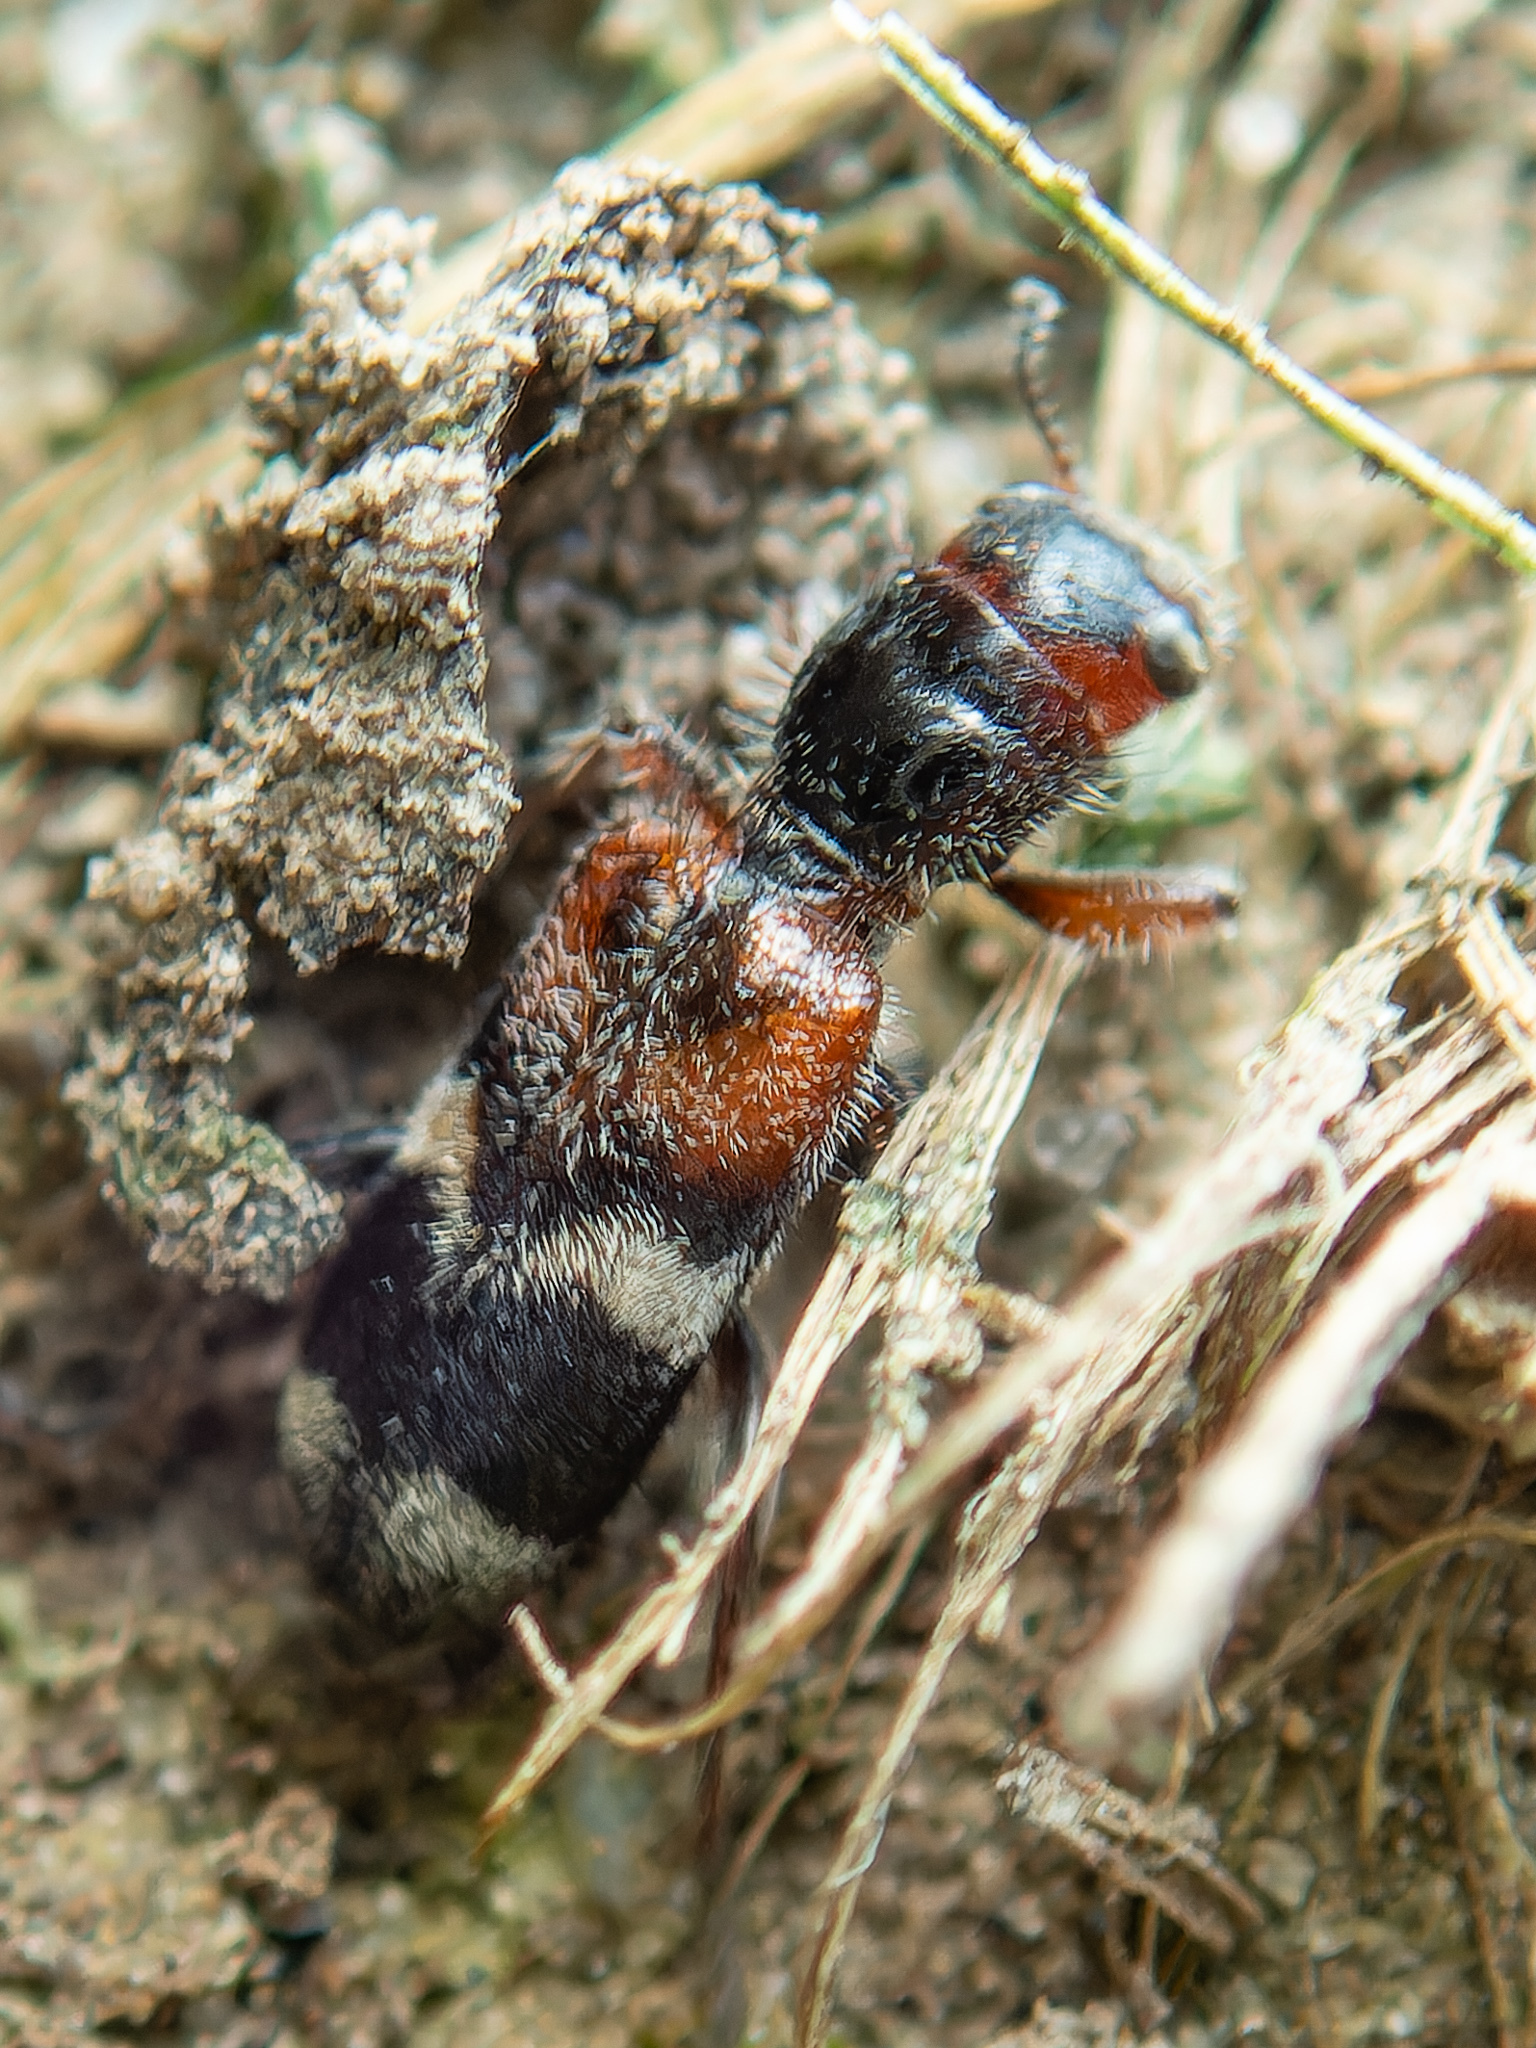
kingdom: Animalia
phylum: Arthropoda
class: Insecta
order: Coleoptera
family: Cleridae
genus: Thanasimus
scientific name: Thanasimus dubius
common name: Wavering checkered beetle
